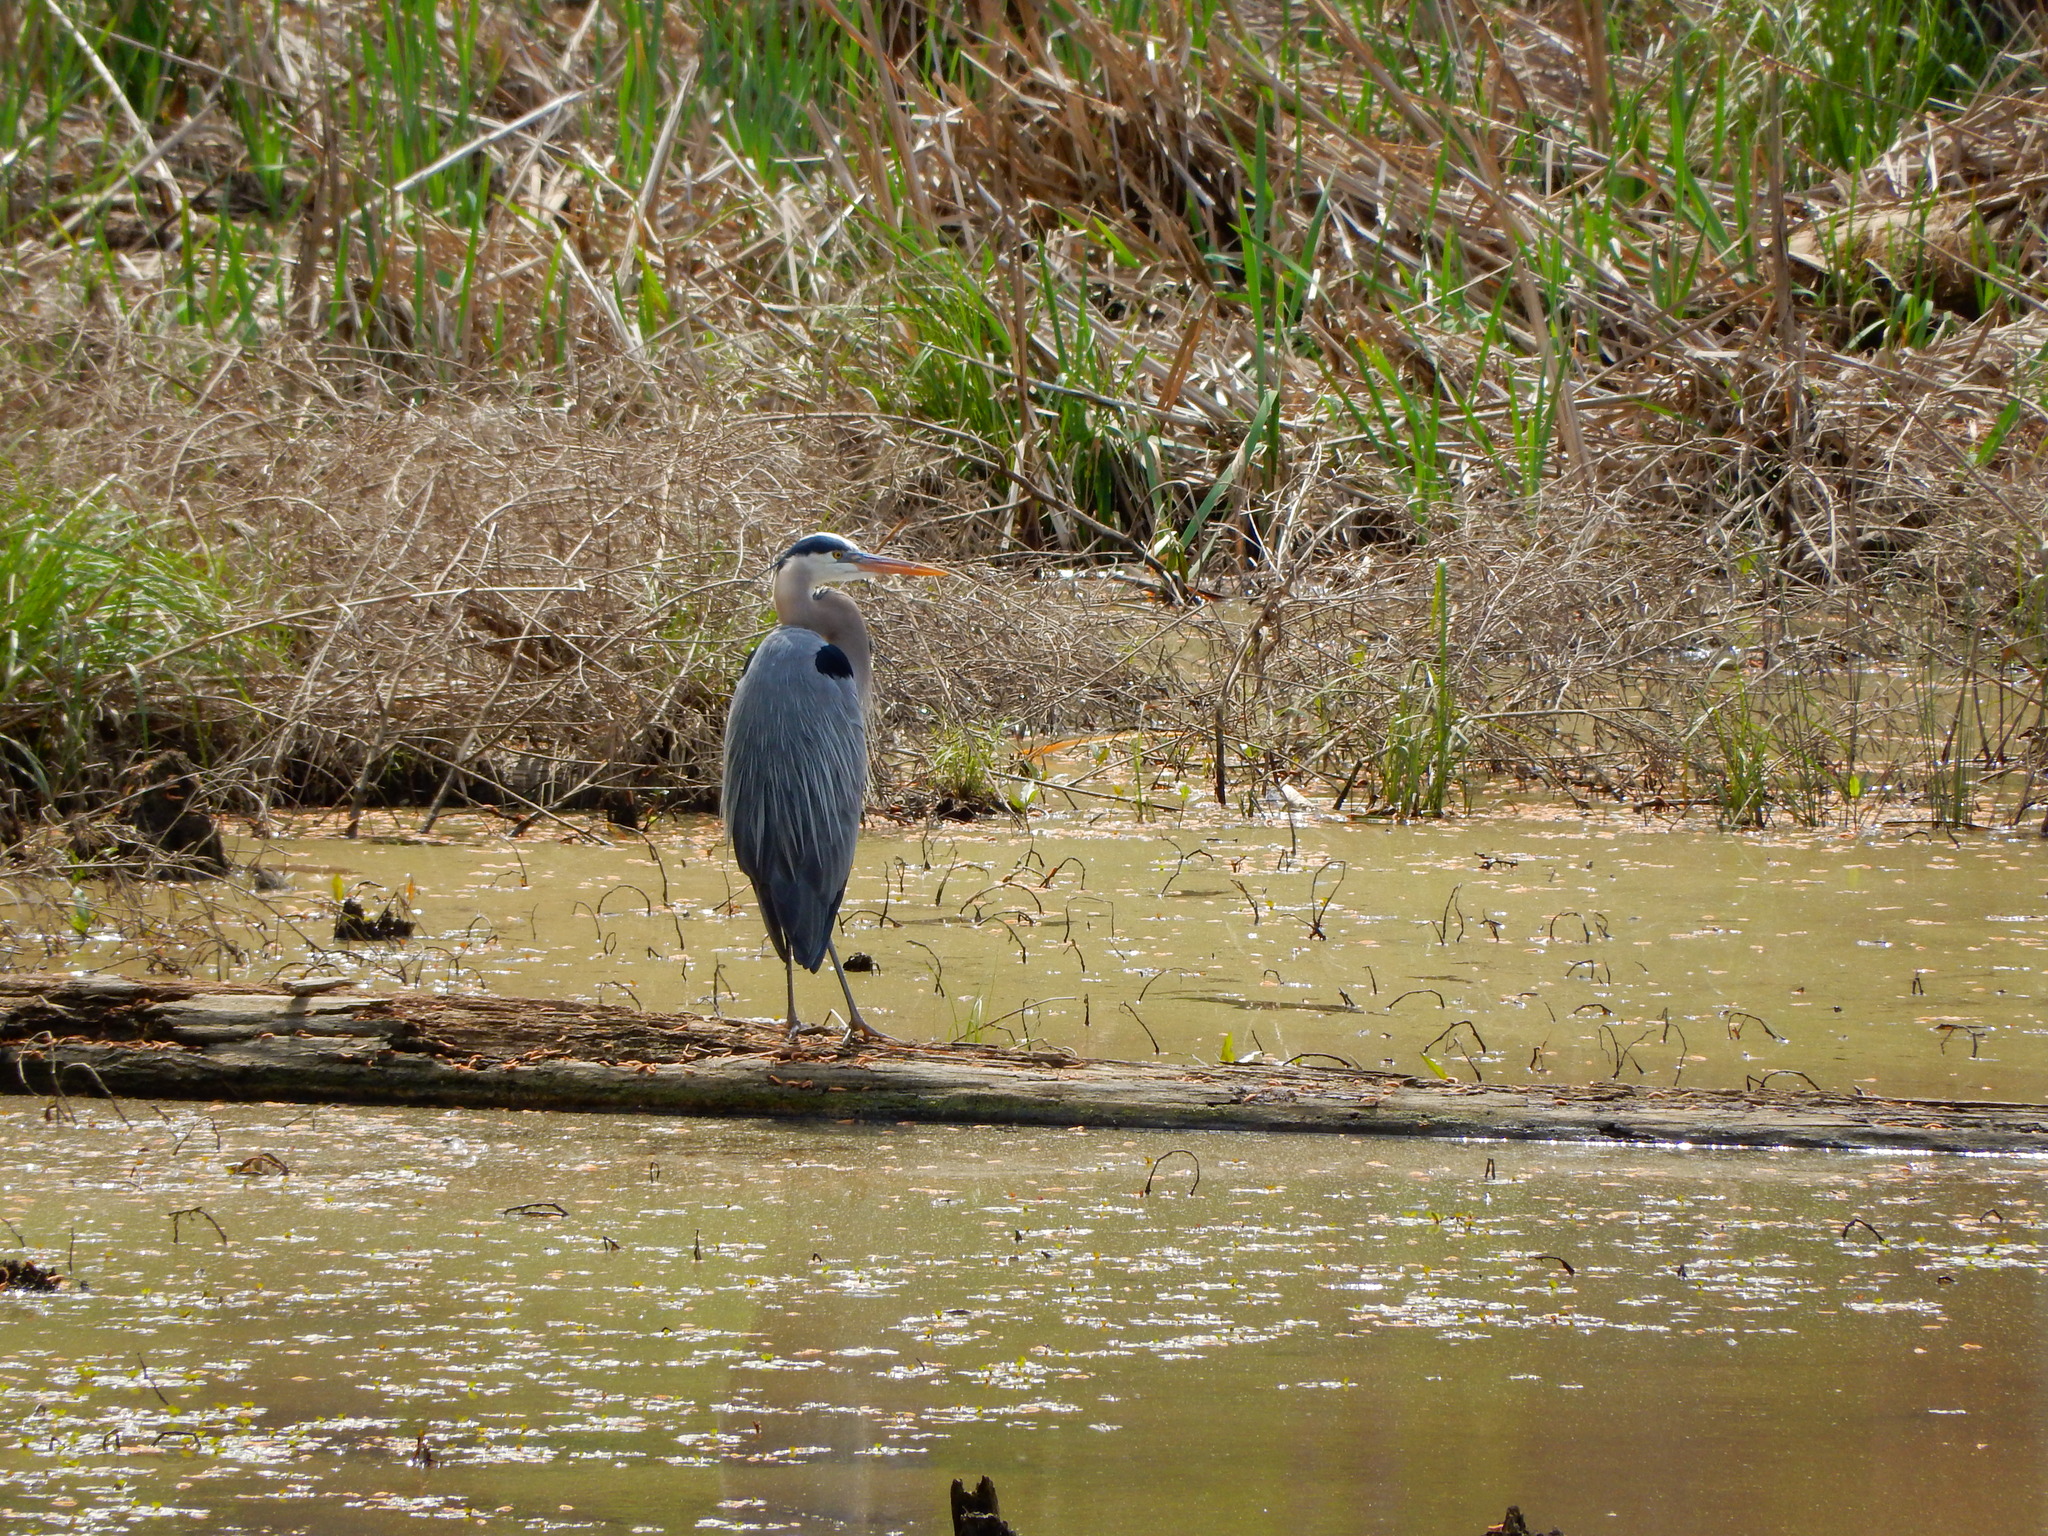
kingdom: Animalia
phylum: Chordata
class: Aves
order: Pelecaniformes
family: Ardeidae
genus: Ardea
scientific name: Ardea herodias
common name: Great blue heron
